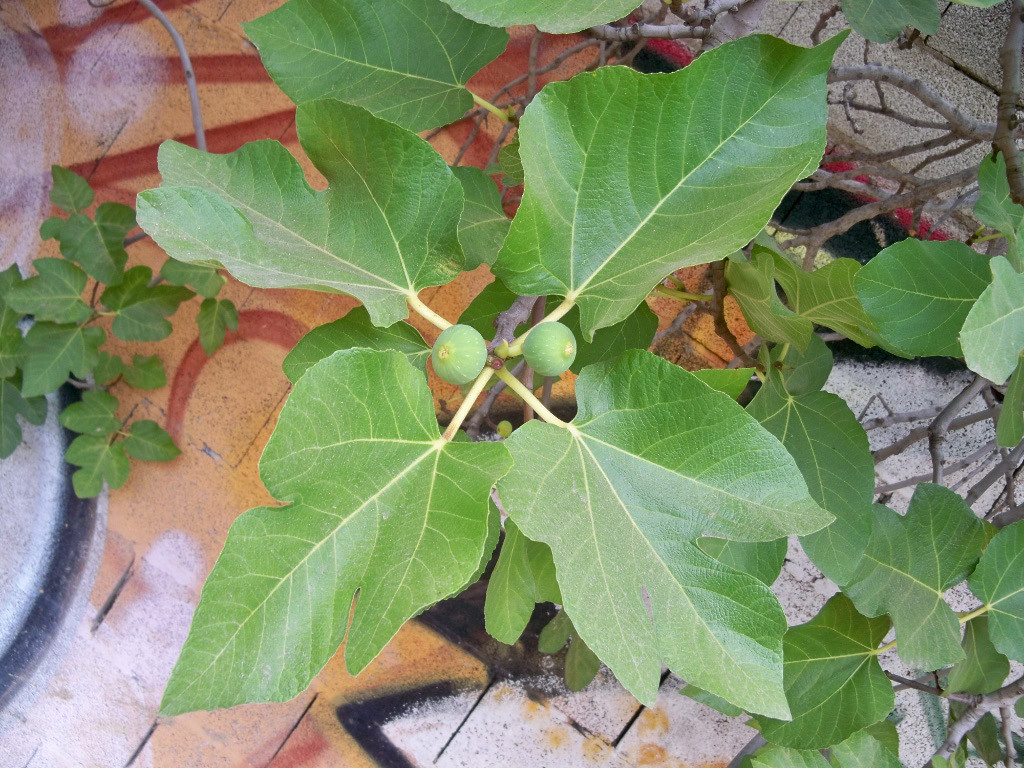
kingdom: Plantae
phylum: Tracheophyta
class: Magnoliopsida
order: Rosales
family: Moraceae
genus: Ficus
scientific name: Ficus carica
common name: Fig
